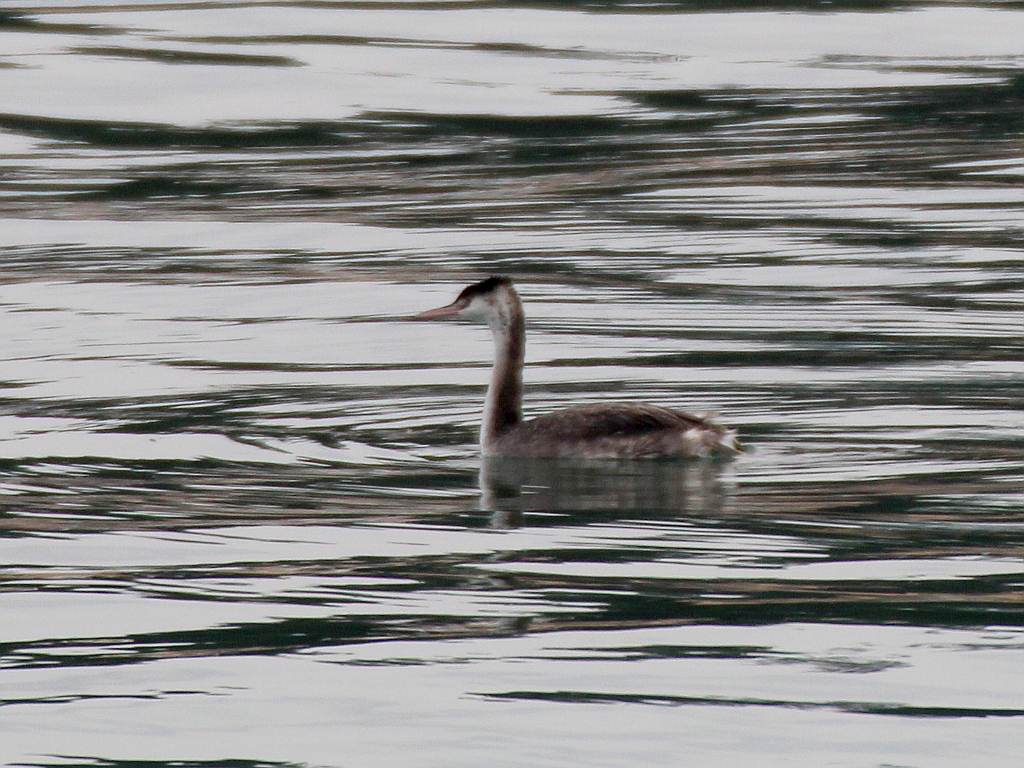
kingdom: Animalia
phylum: Chordata
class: Aves
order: Podicipediformes
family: Podicipedidae
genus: Podiceps
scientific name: Podiceps cristatus
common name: Great crested grebe
